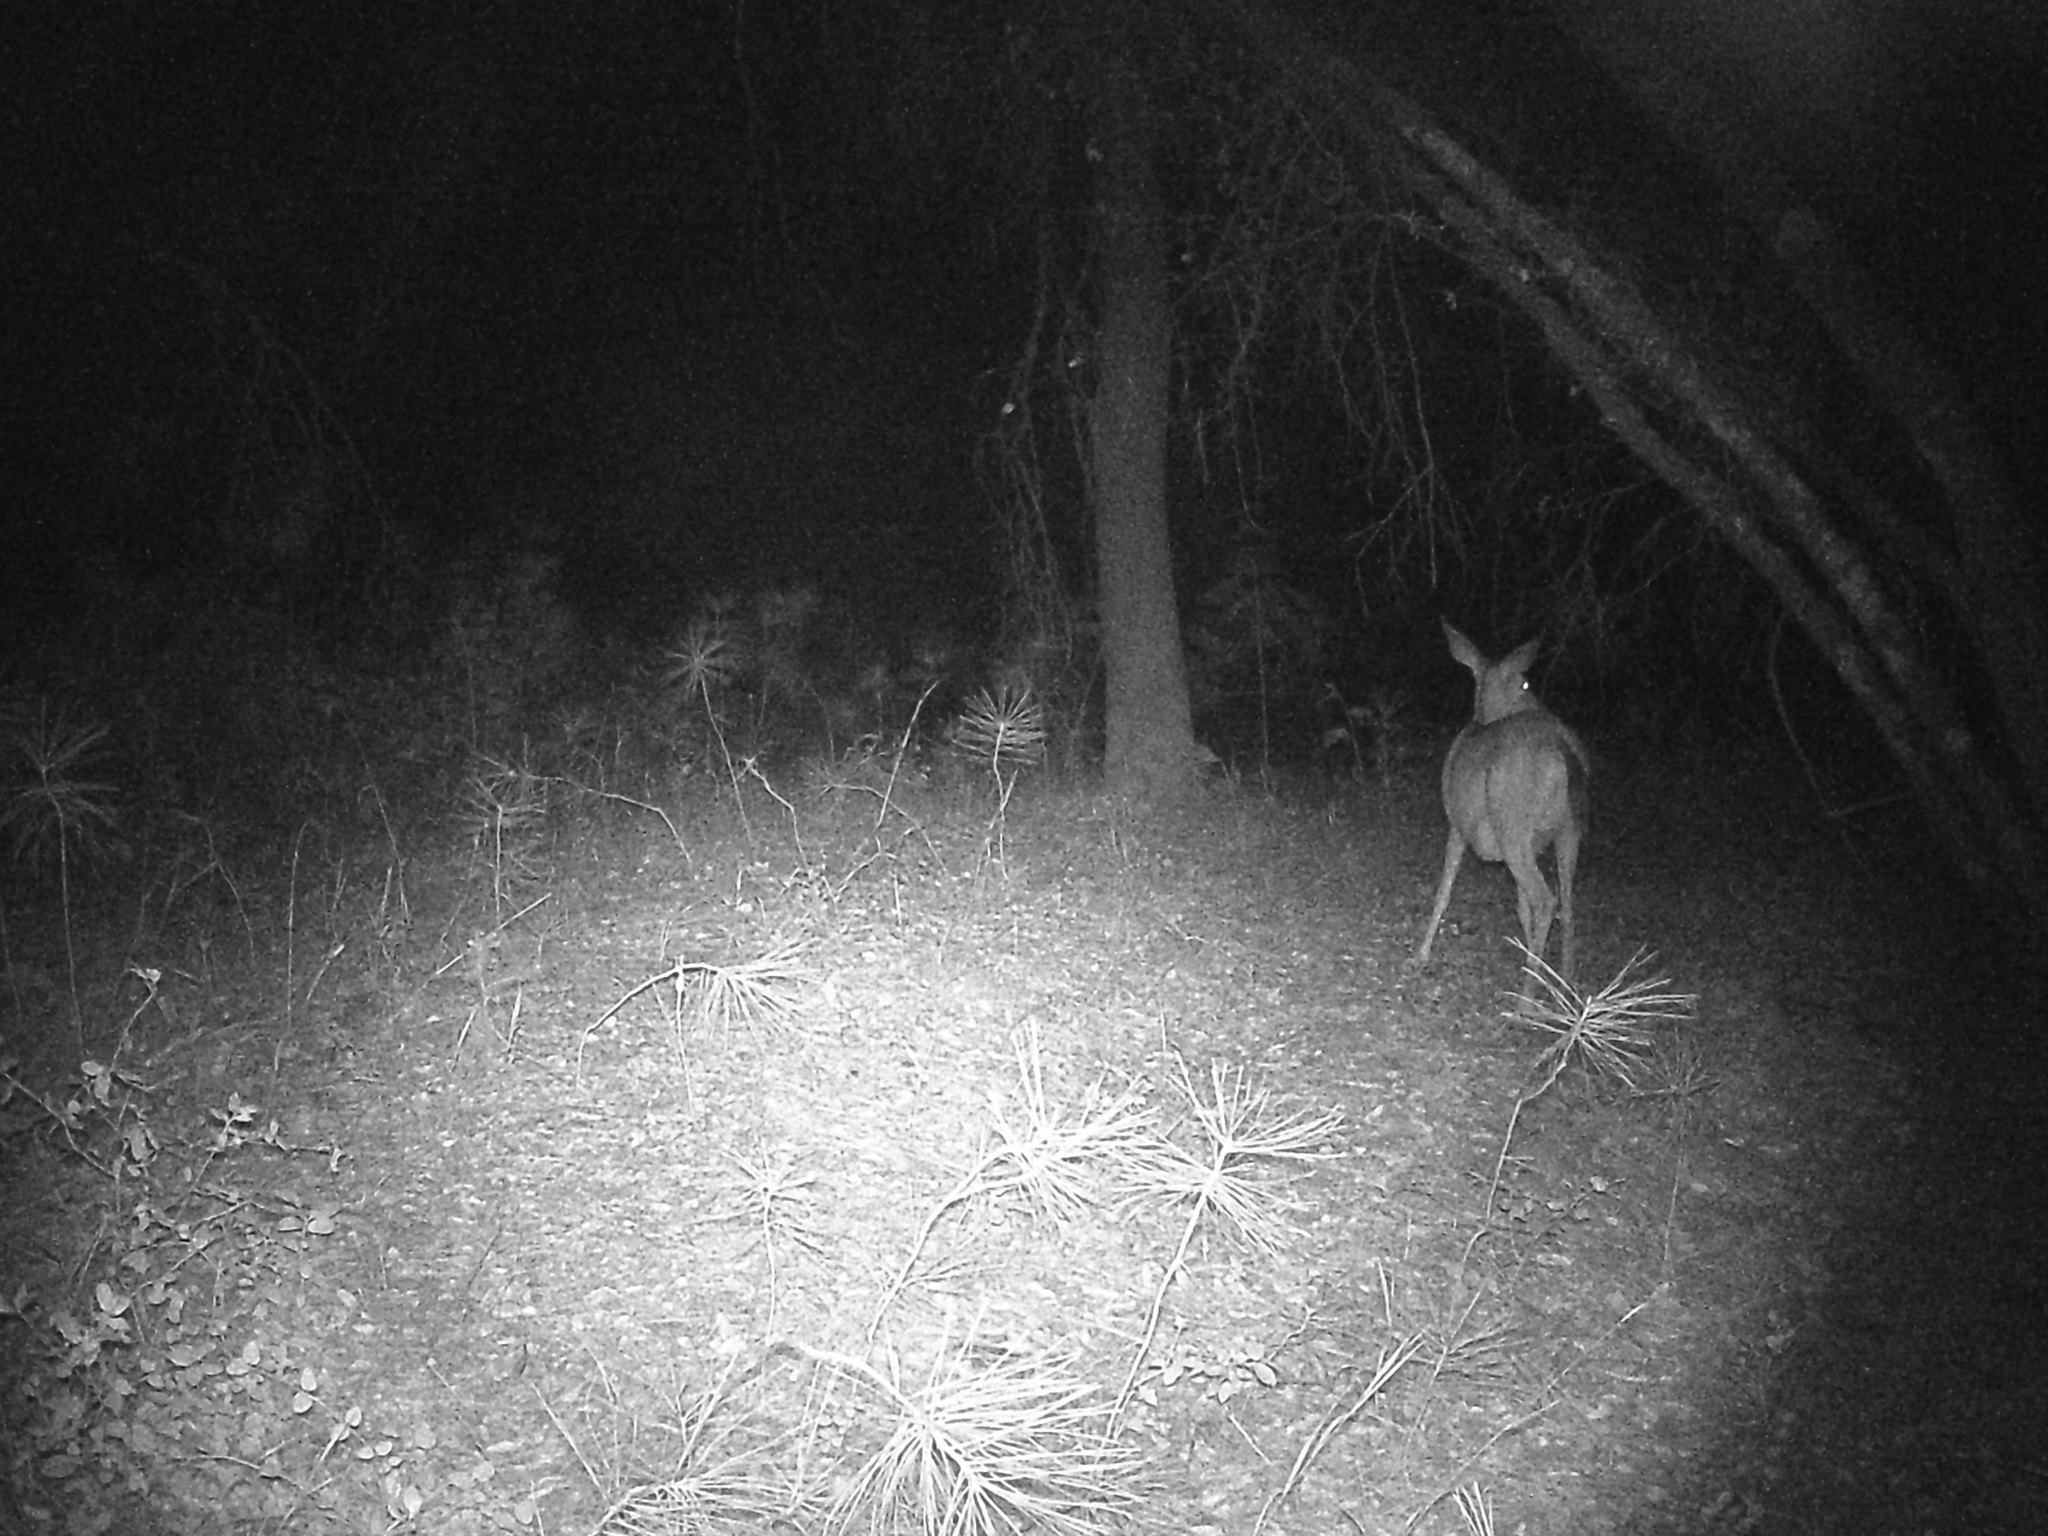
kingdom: Animalia
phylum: Chordata
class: Mammalia
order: Artiodactyla
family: Cervidae
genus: Odocoileus
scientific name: Odocoileus hemionus
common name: Mule deer
